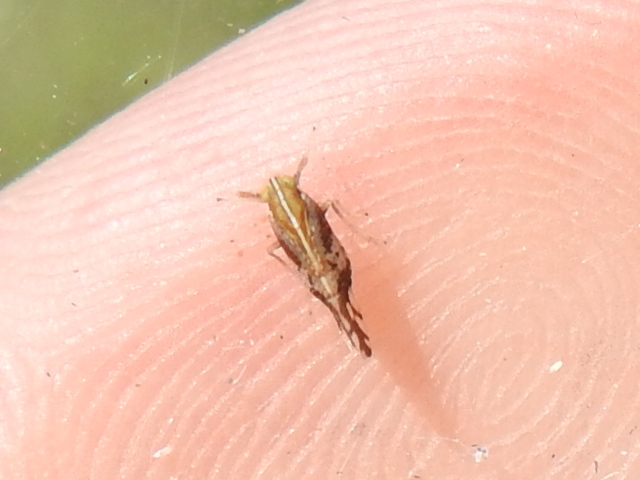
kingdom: Animalia
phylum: Arthropoda
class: Insecta
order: Hemiptera
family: Delphacidae
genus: Liburniella
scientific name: Liburniella ornata
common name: Ornate planthopper
